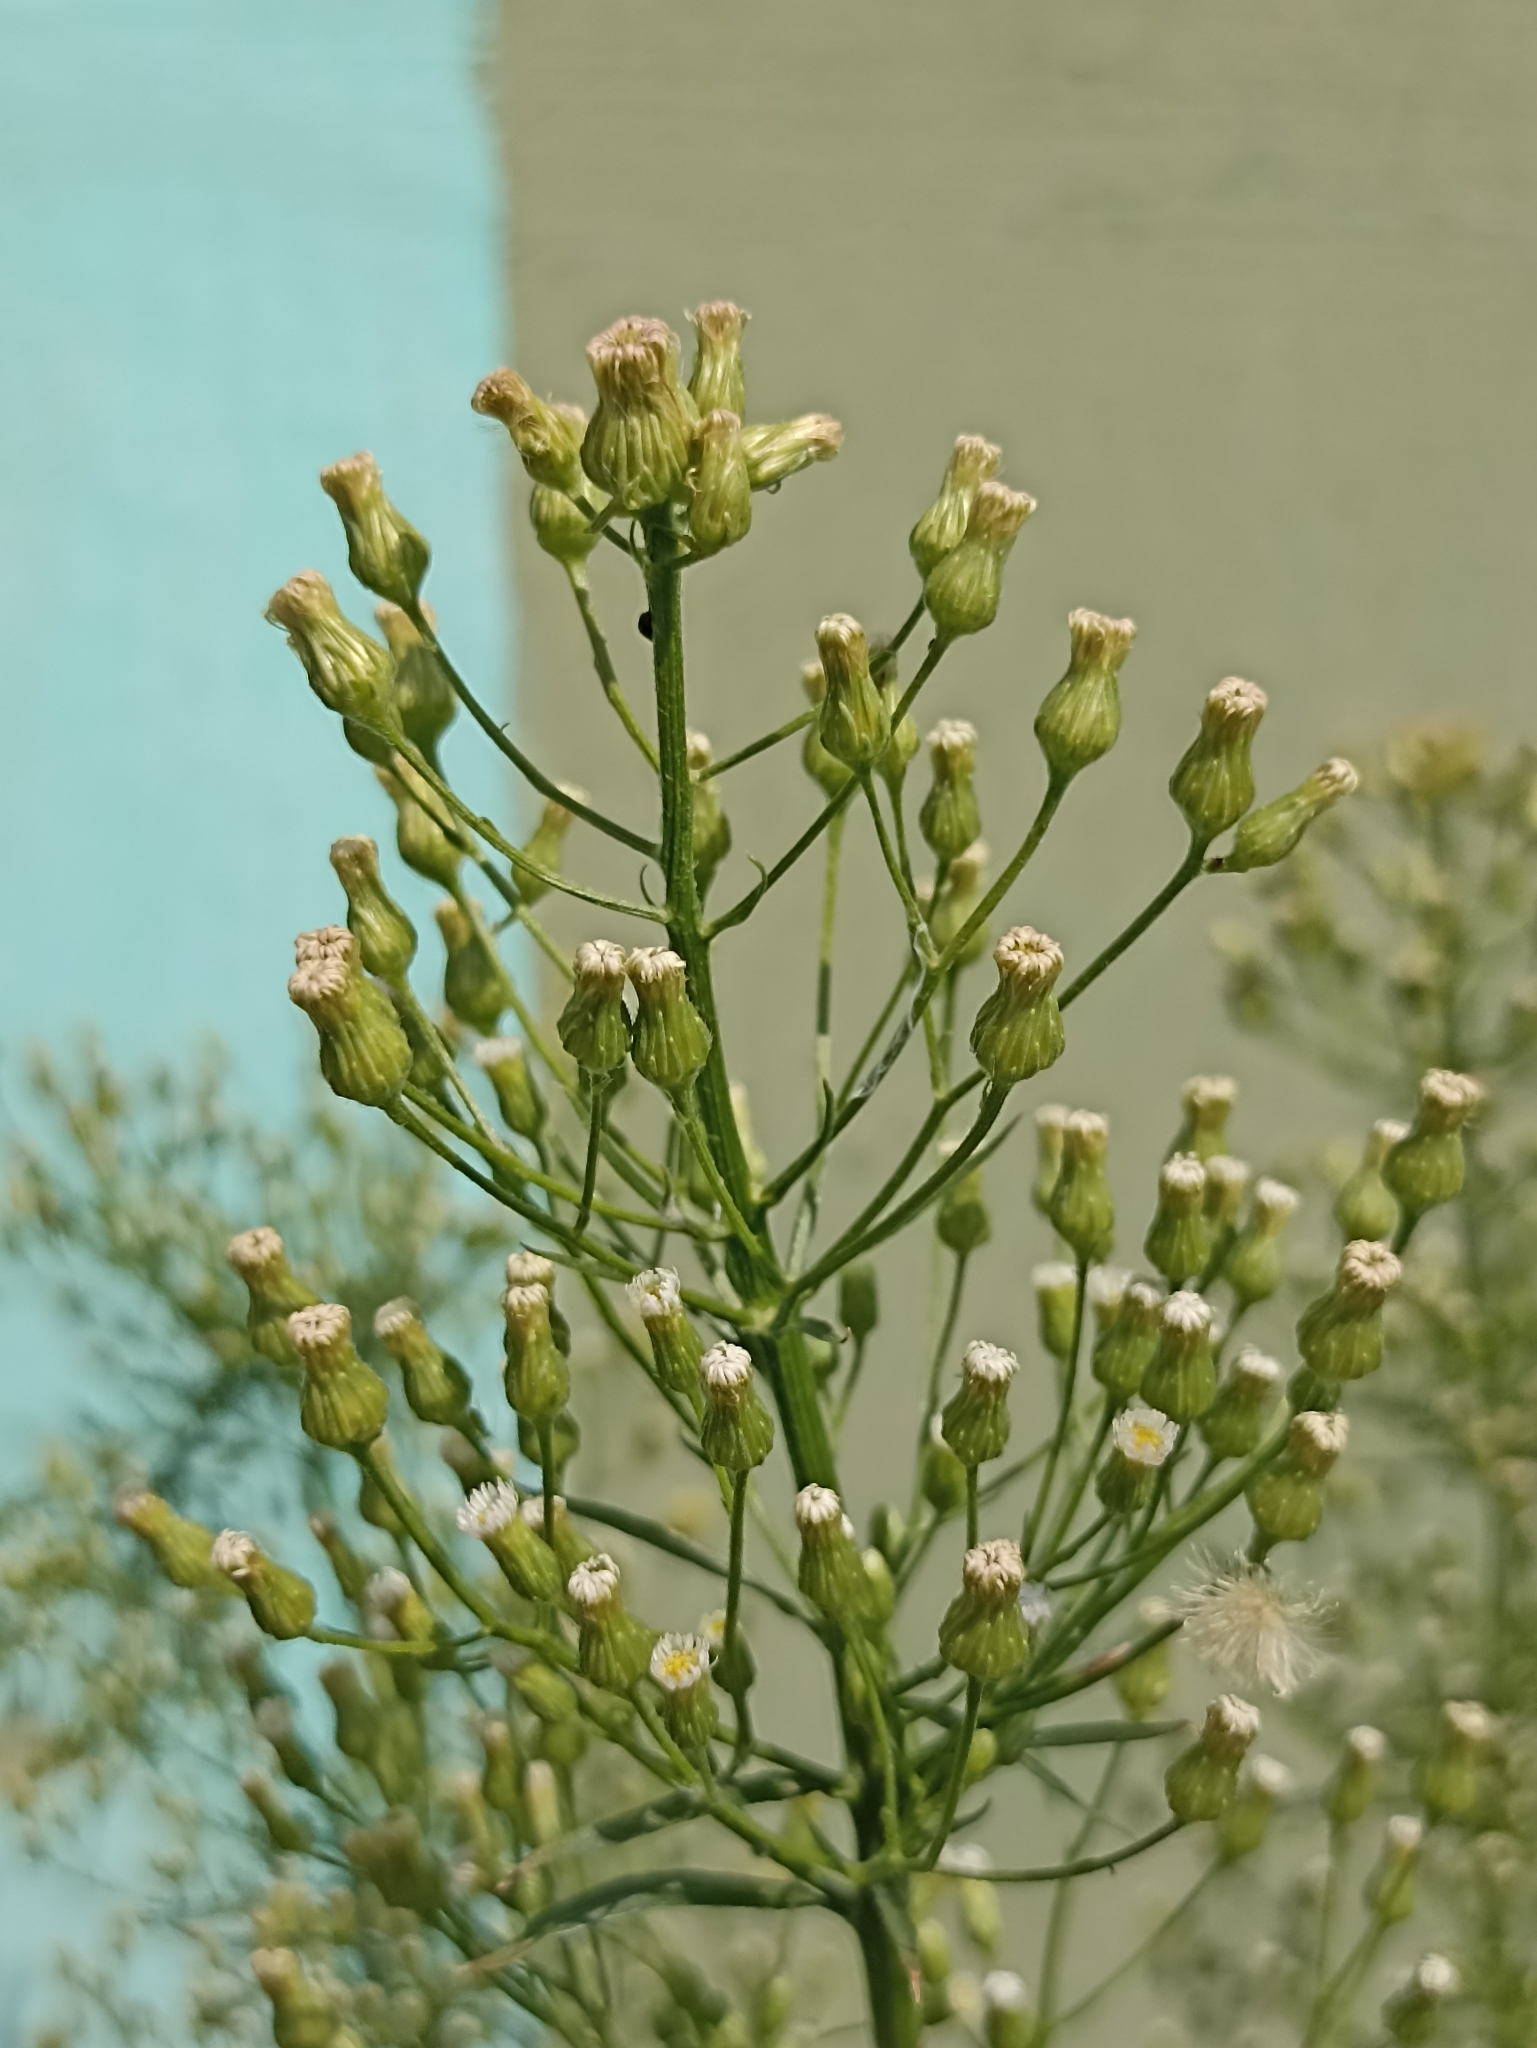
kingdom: Plantae
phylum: Tracheophyta
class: Magnoliopsida
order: Asterales
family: Asteraceae
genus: Erigeron
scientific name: Erigeron canadensis
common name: Canadian fleabane
